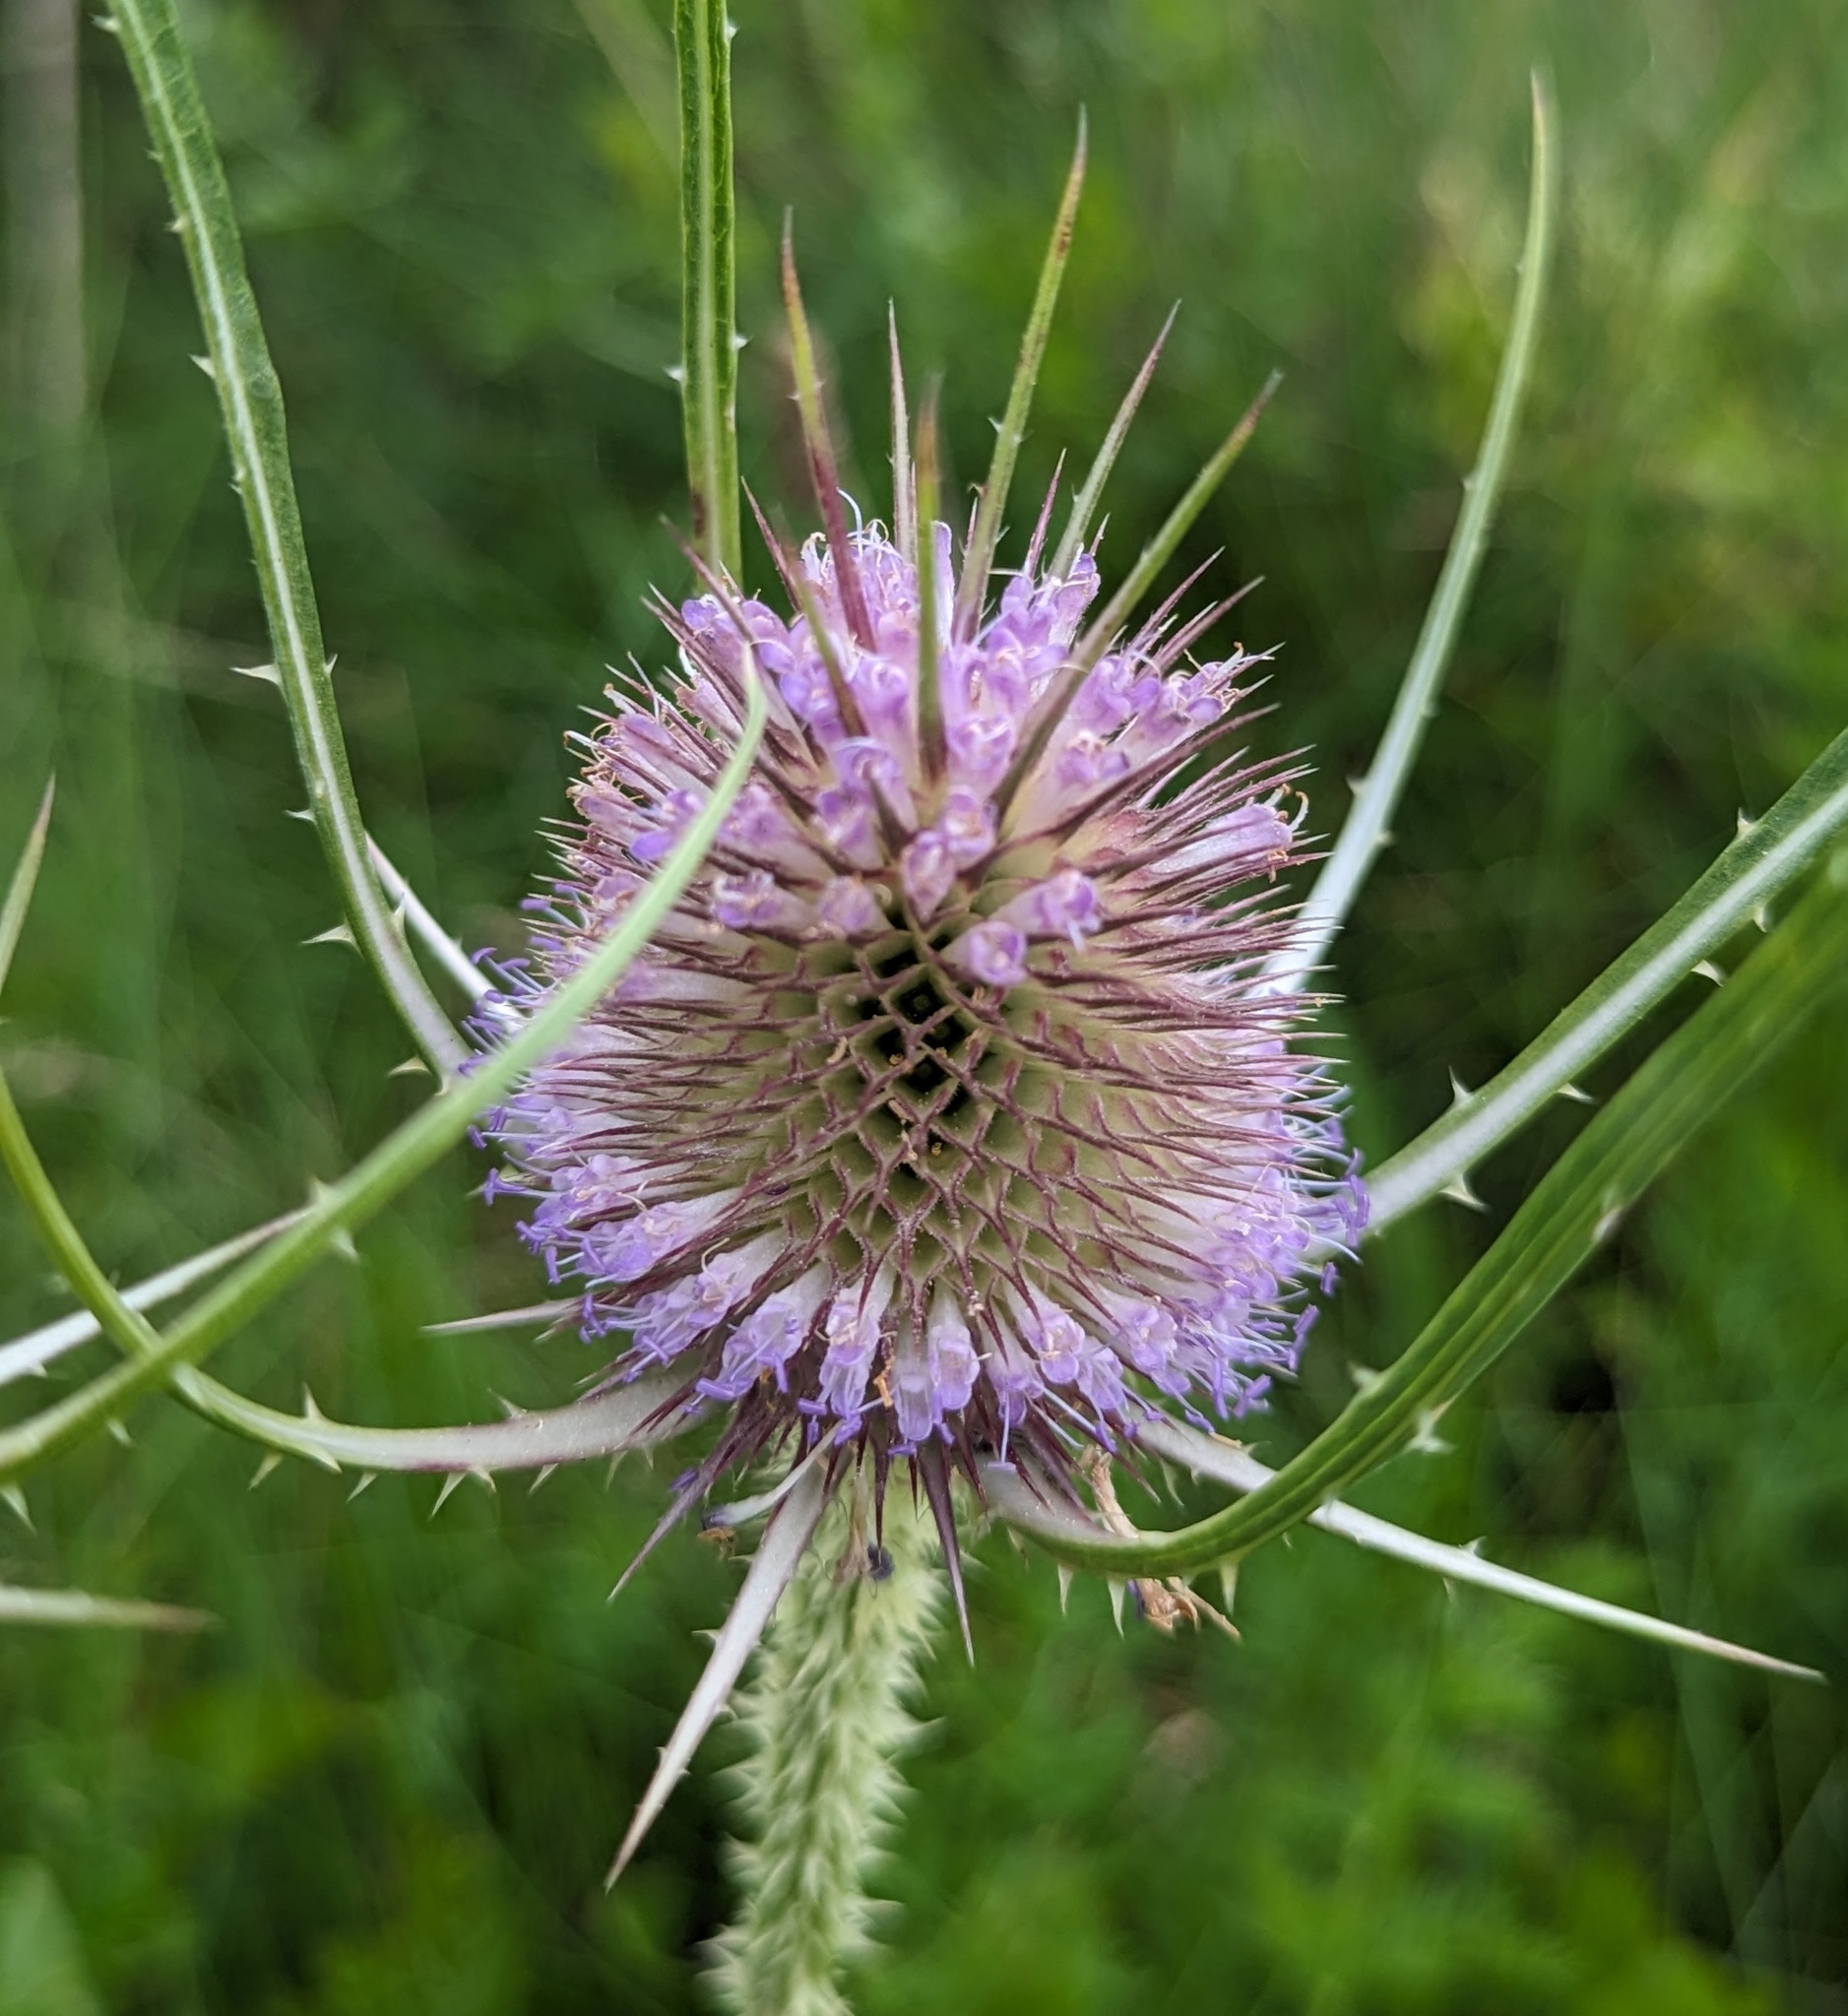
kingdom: Plantae
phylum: Tracheophyta
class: Magnoliopsida
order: Dipsacales
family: Caprifoliaceae
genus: Dipsacus
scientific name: Dipsacus fullonum
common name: Teasel
